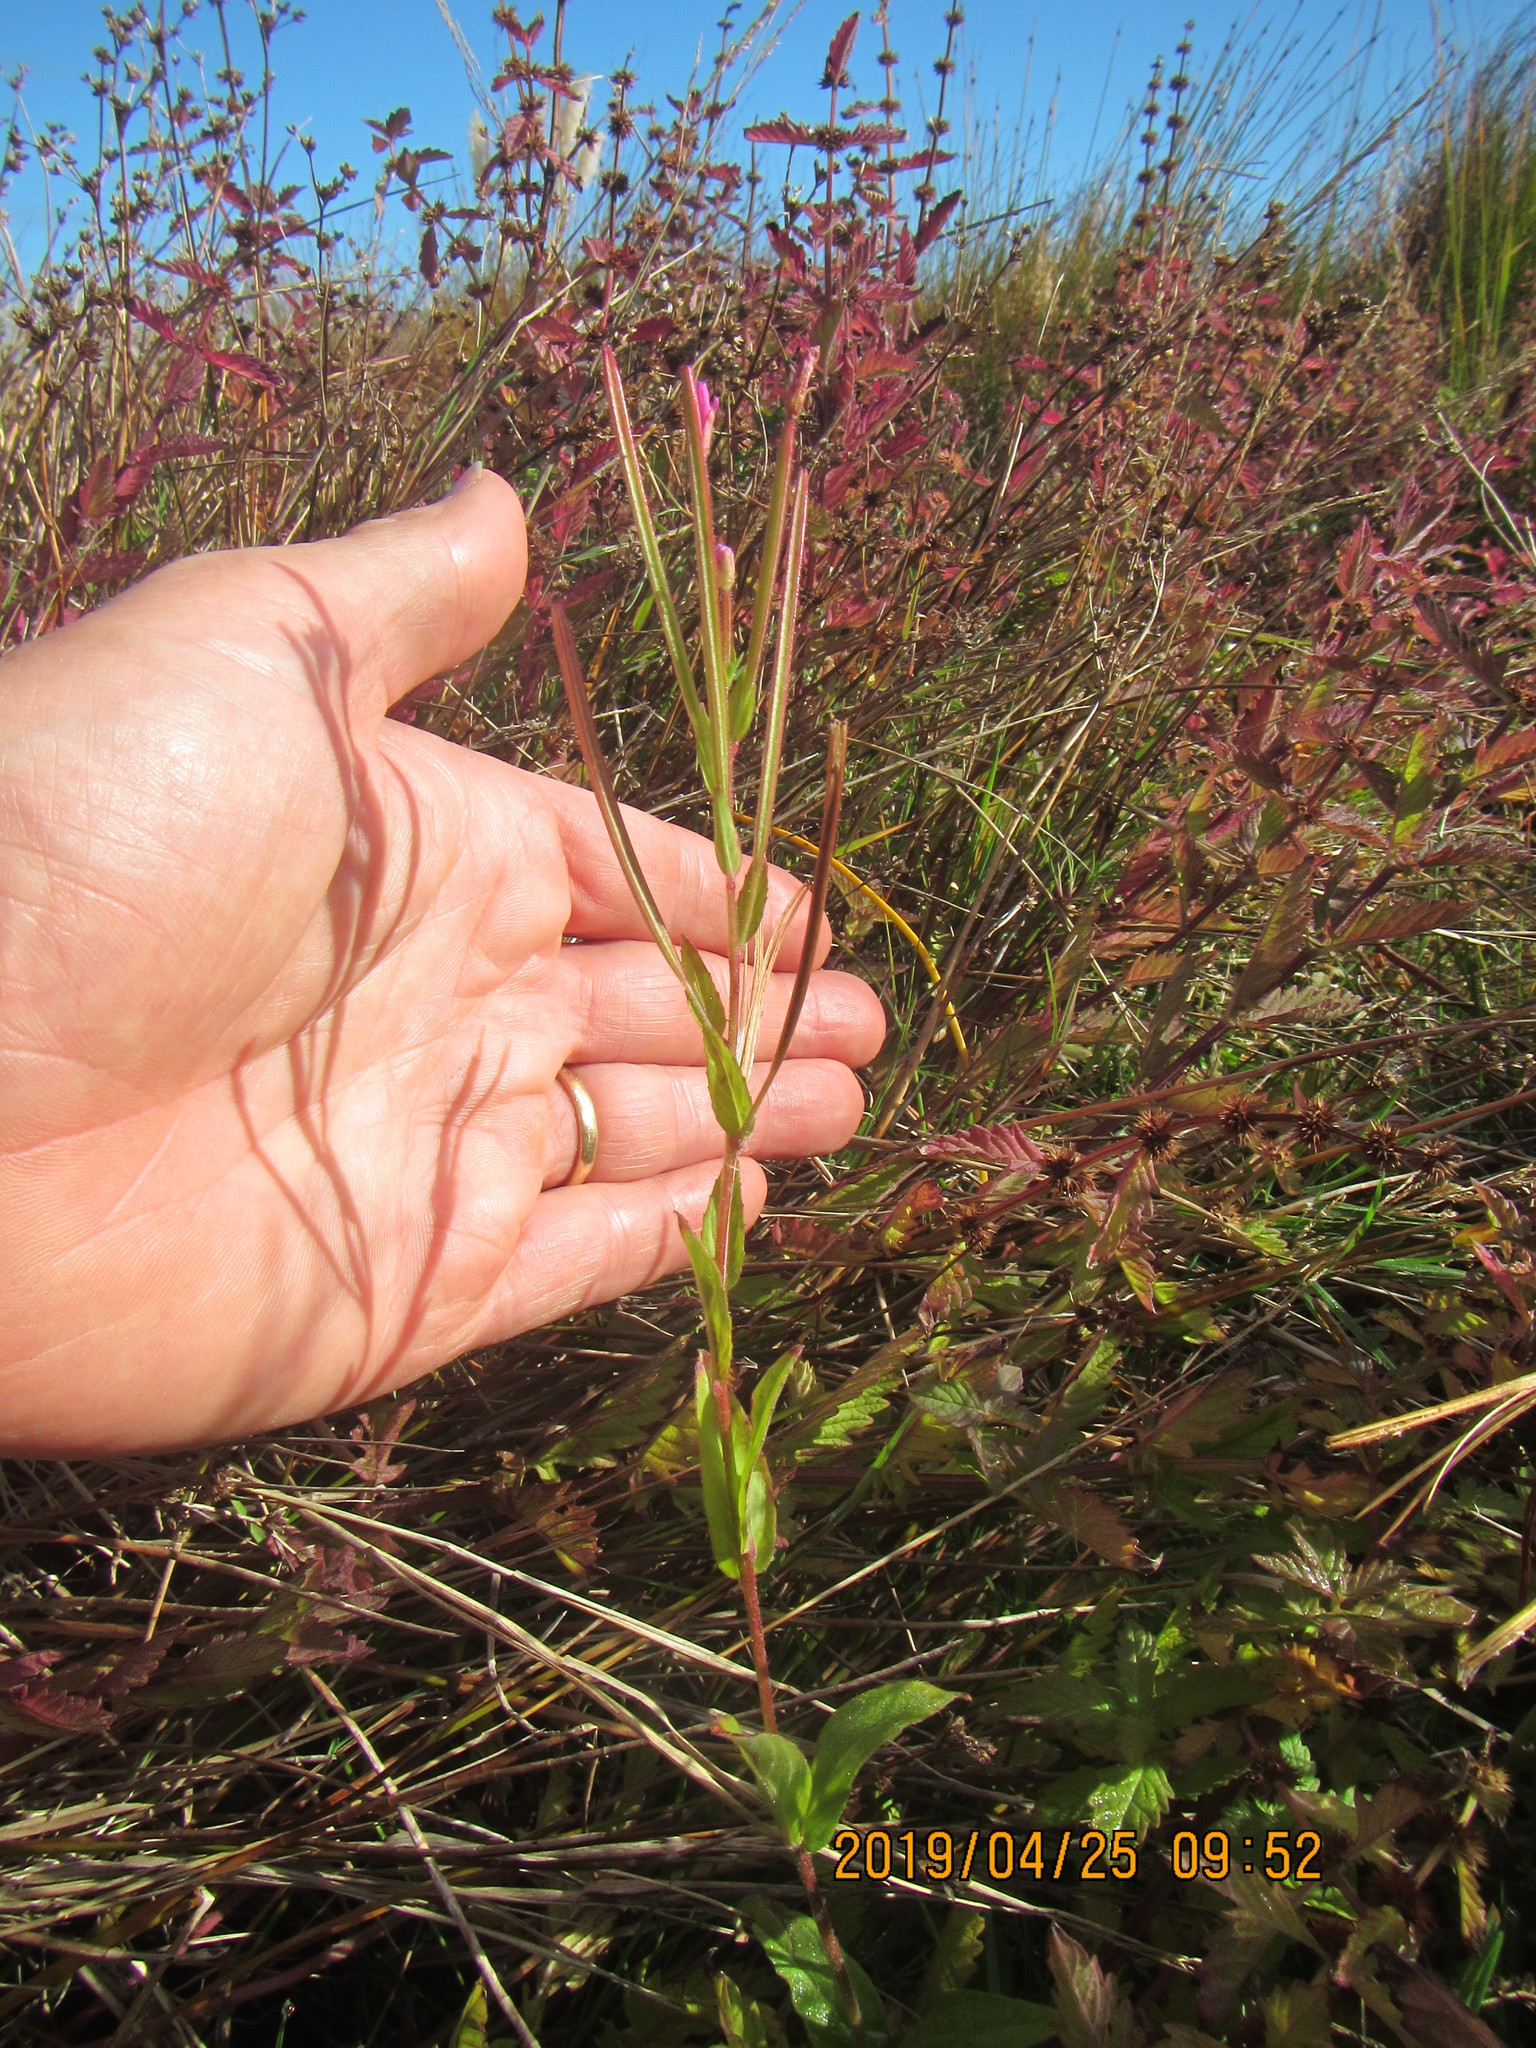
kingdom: Plantae
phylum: Tracheophyta
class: Magnoliopsida
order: Myrtales
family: Onagraceae
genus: Epilobium
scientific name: Epilobium parviflorum
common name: Hoary willowherb
